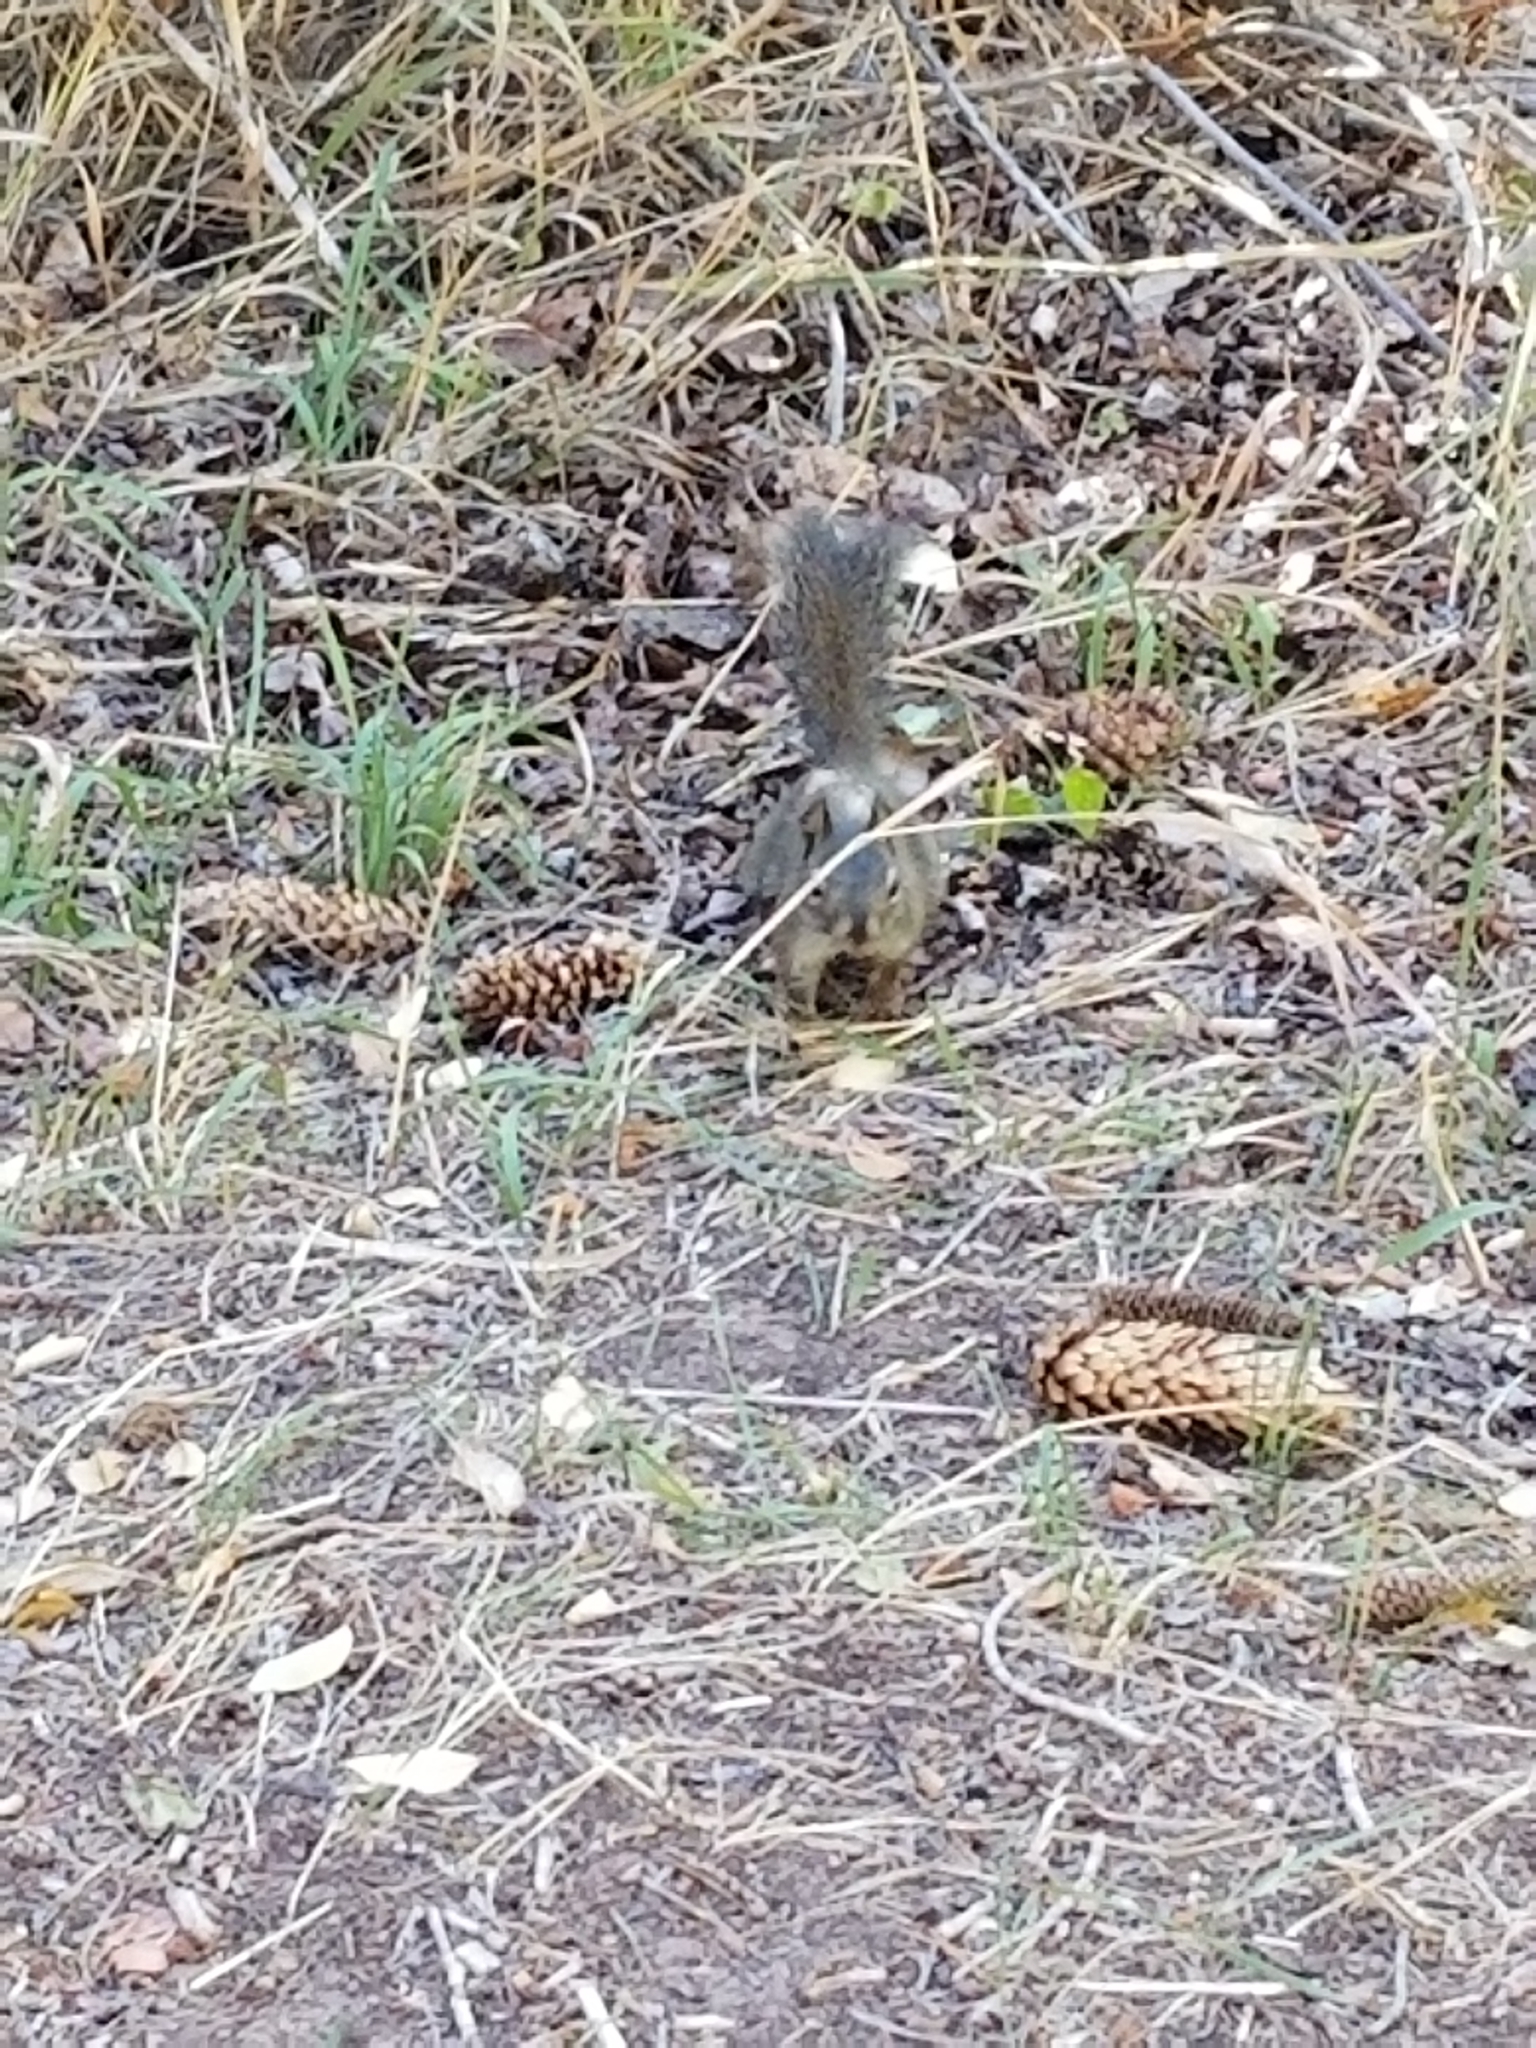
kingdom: Animalia
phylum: Chordata
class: Mammalia
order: Rodentia
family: Sciuridae
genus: Tamiasciurus
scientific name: Tamiasciurus hudsonicus
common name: Red squirrel
